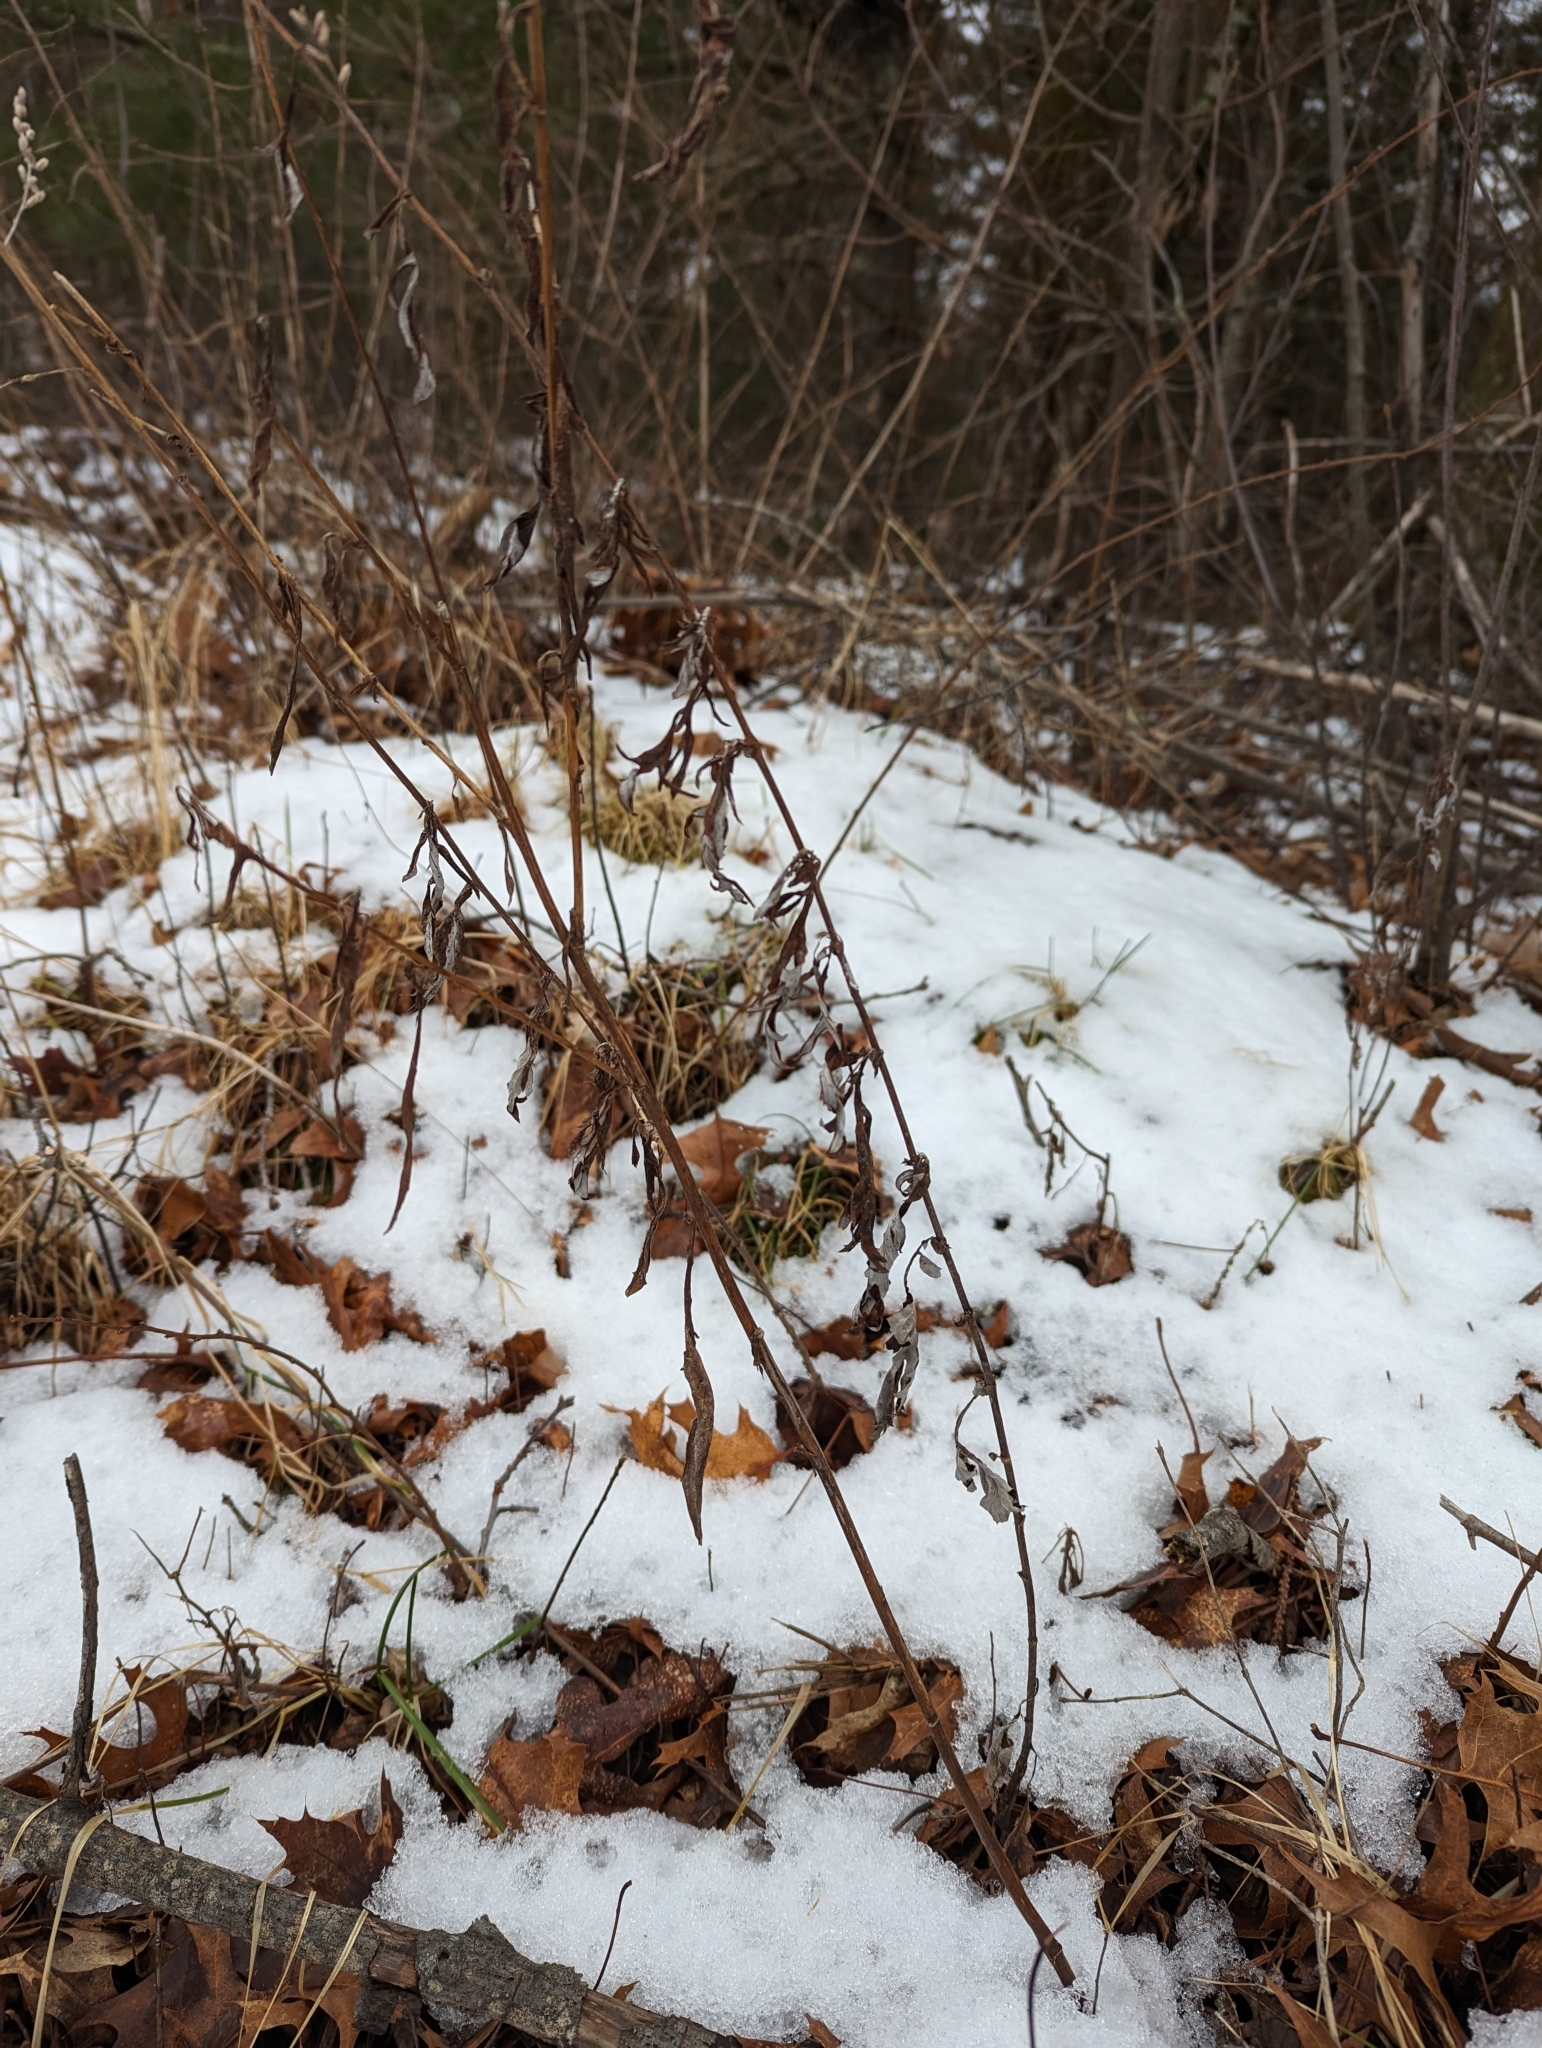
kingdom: Plantae
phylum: Tracheophyta
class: Magnoliopsida
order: Asterales
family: Asteraceae
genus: Artemisia
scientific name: Artemisia vulgaris
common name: Mugwort
